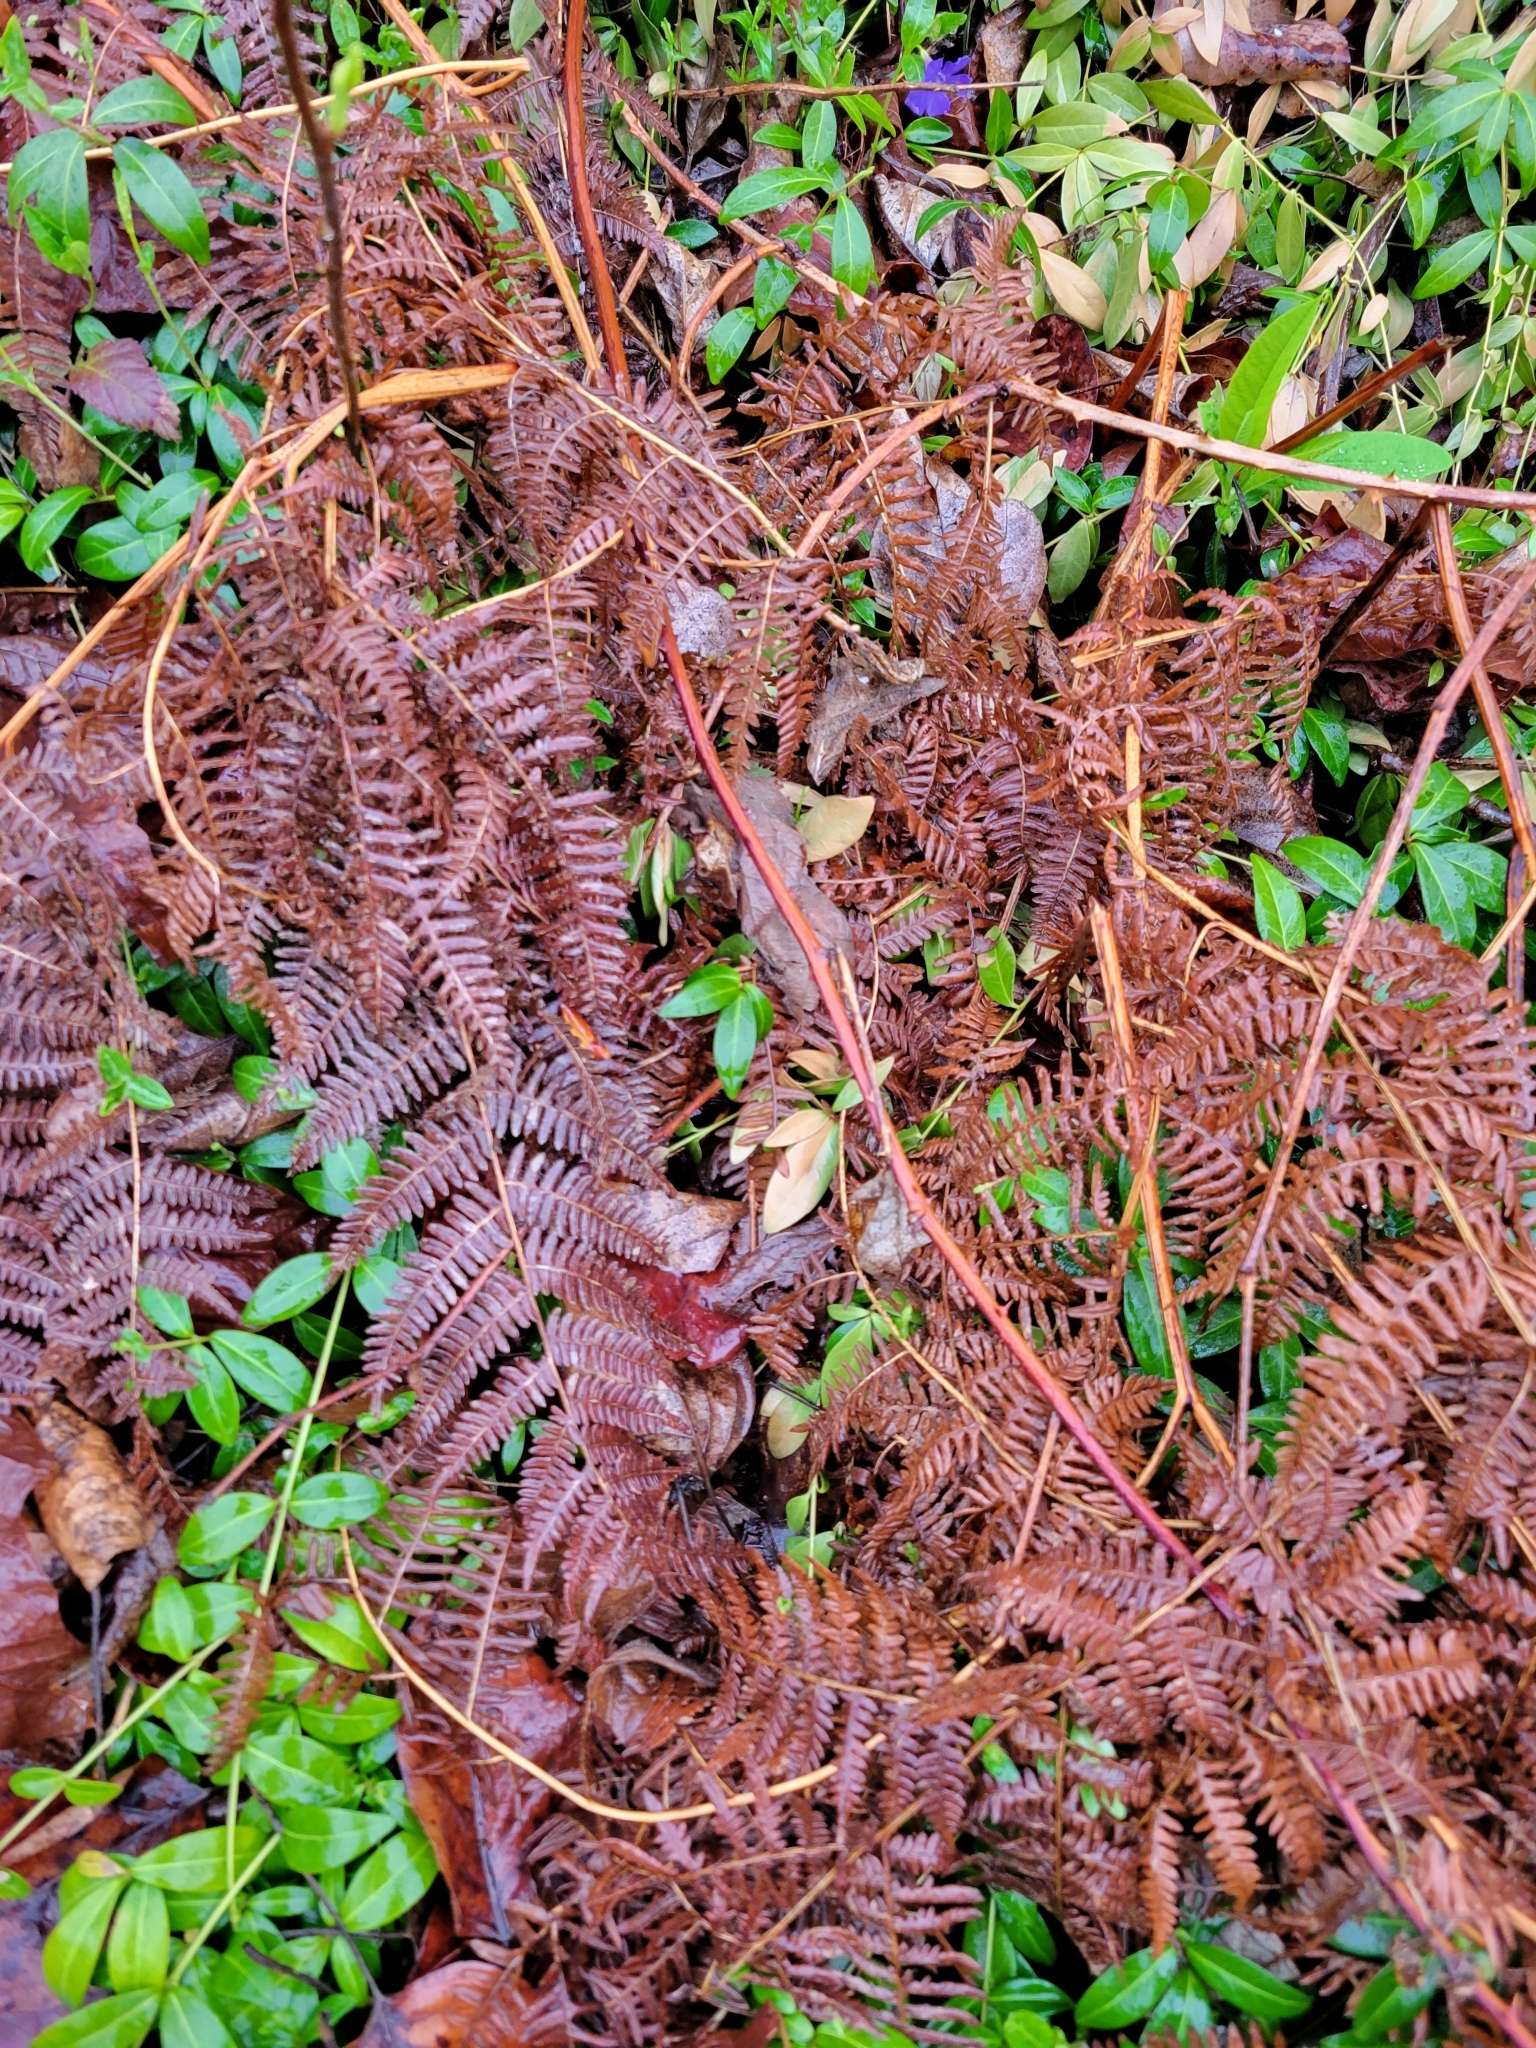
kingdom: Plantae
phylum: Tracheophyta
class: Polypodiopsida
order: Polypodiales
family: Dennstaedtiaceae
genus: Pteridium
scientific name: Pteridium aquilinum
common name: Bracken
